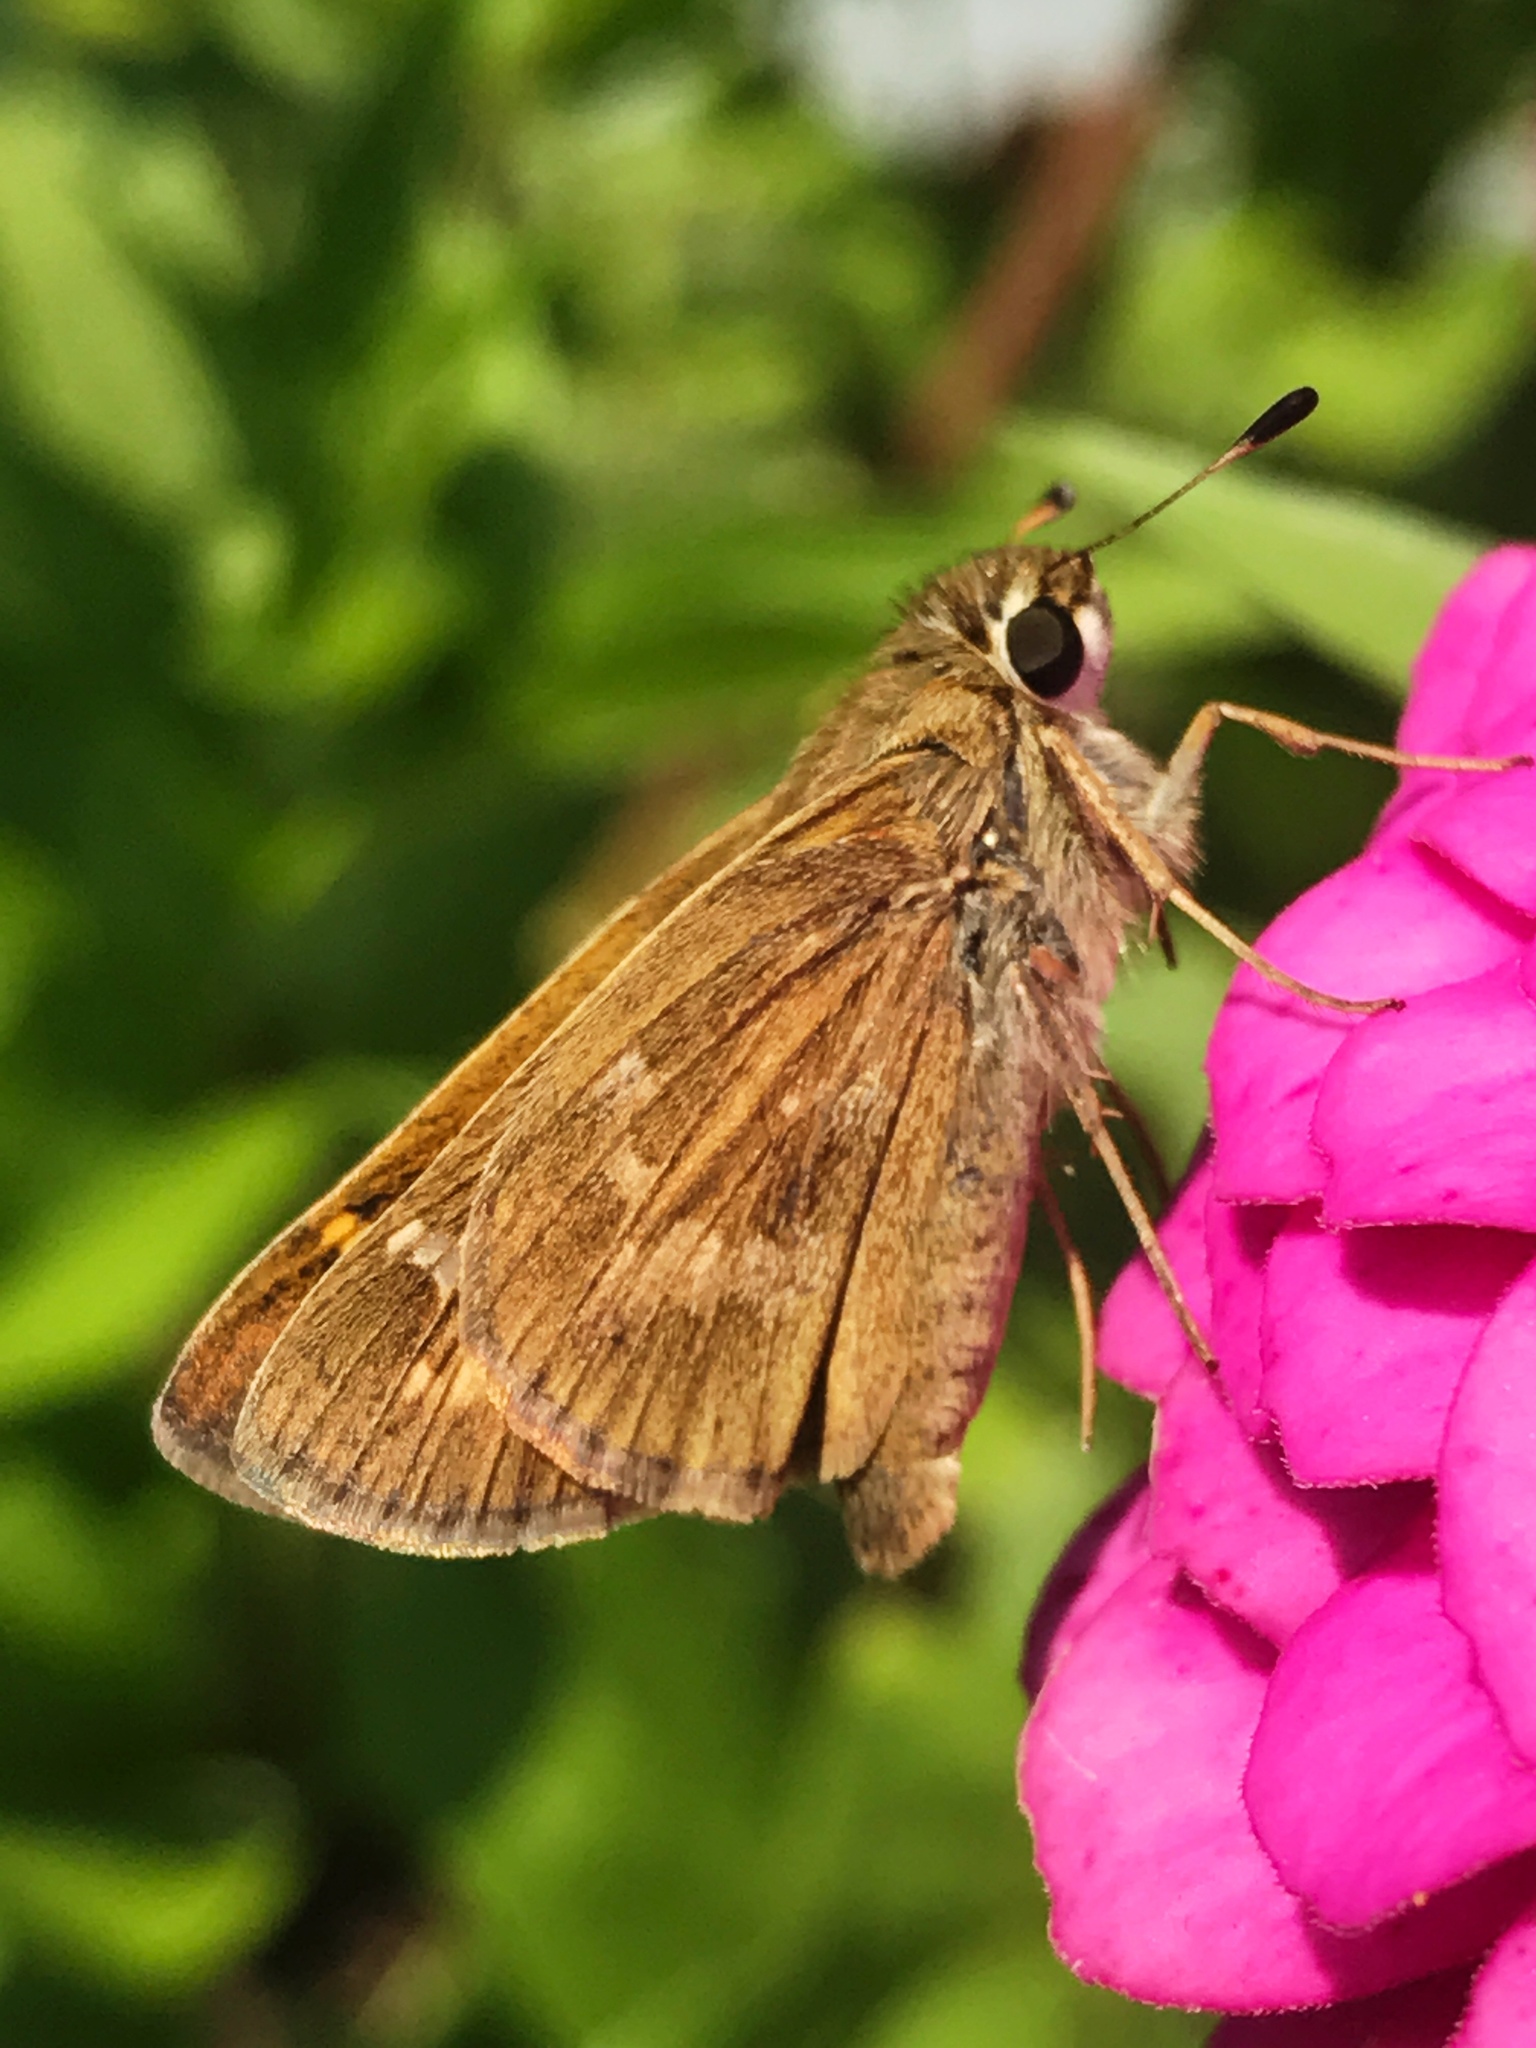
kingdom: Animalia
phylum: Arthropoda
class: Insecta
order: Lepidoptera
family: Hesperiidae
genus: Atalopedes
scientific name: Atalopedes
